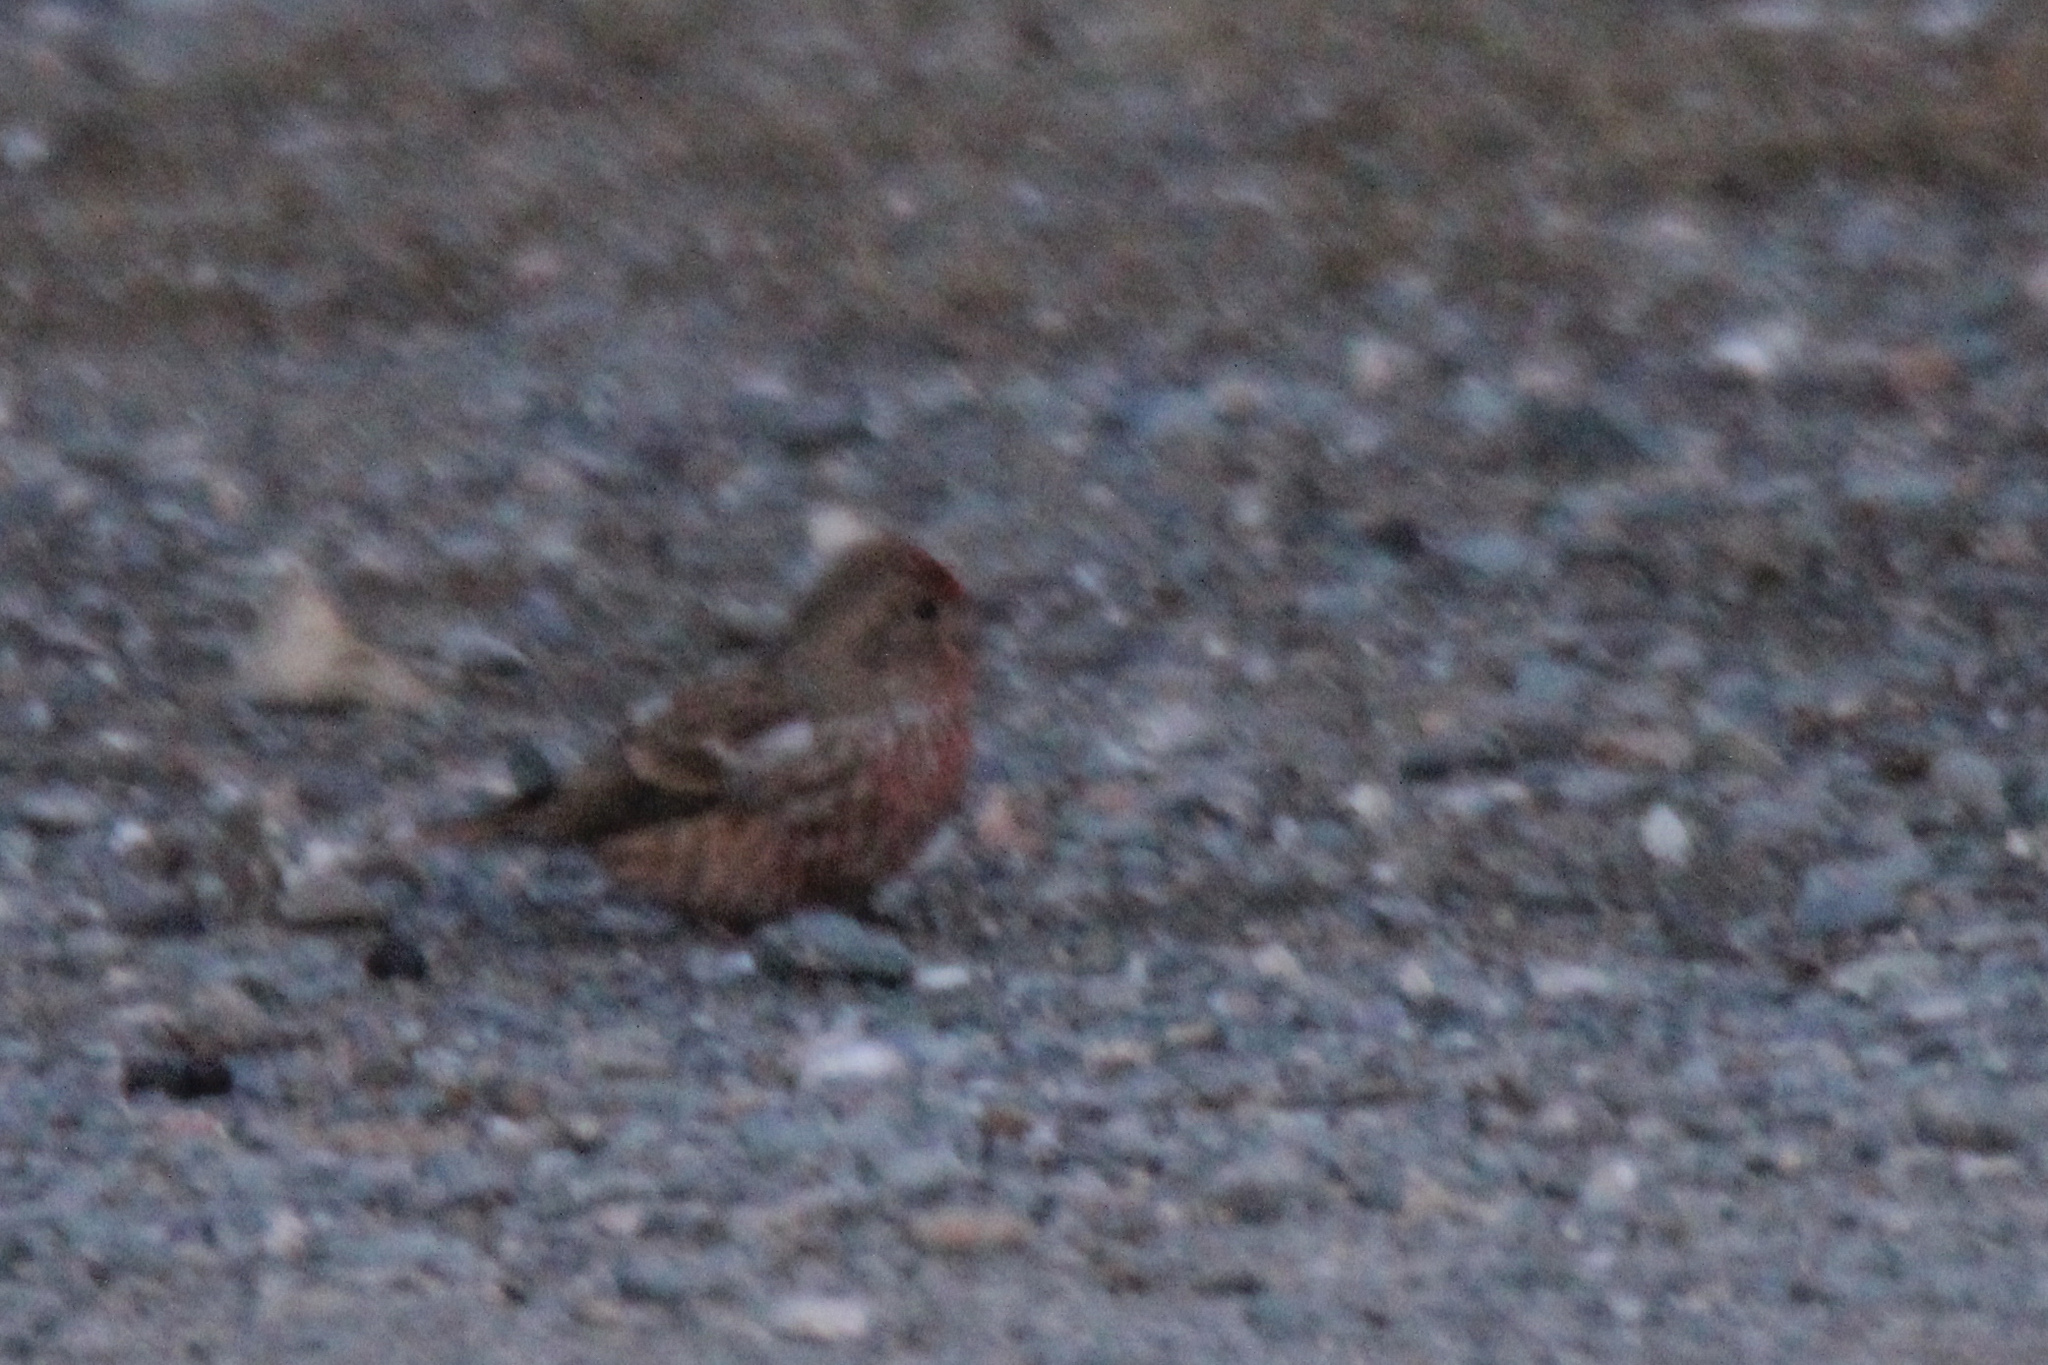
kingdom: Animalia
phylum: Chordata
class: Aves
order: Passeriformes
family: Fringillidae
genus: Carpodacus
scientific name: Carpodacus roseus
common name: Pallas's rosefinch
